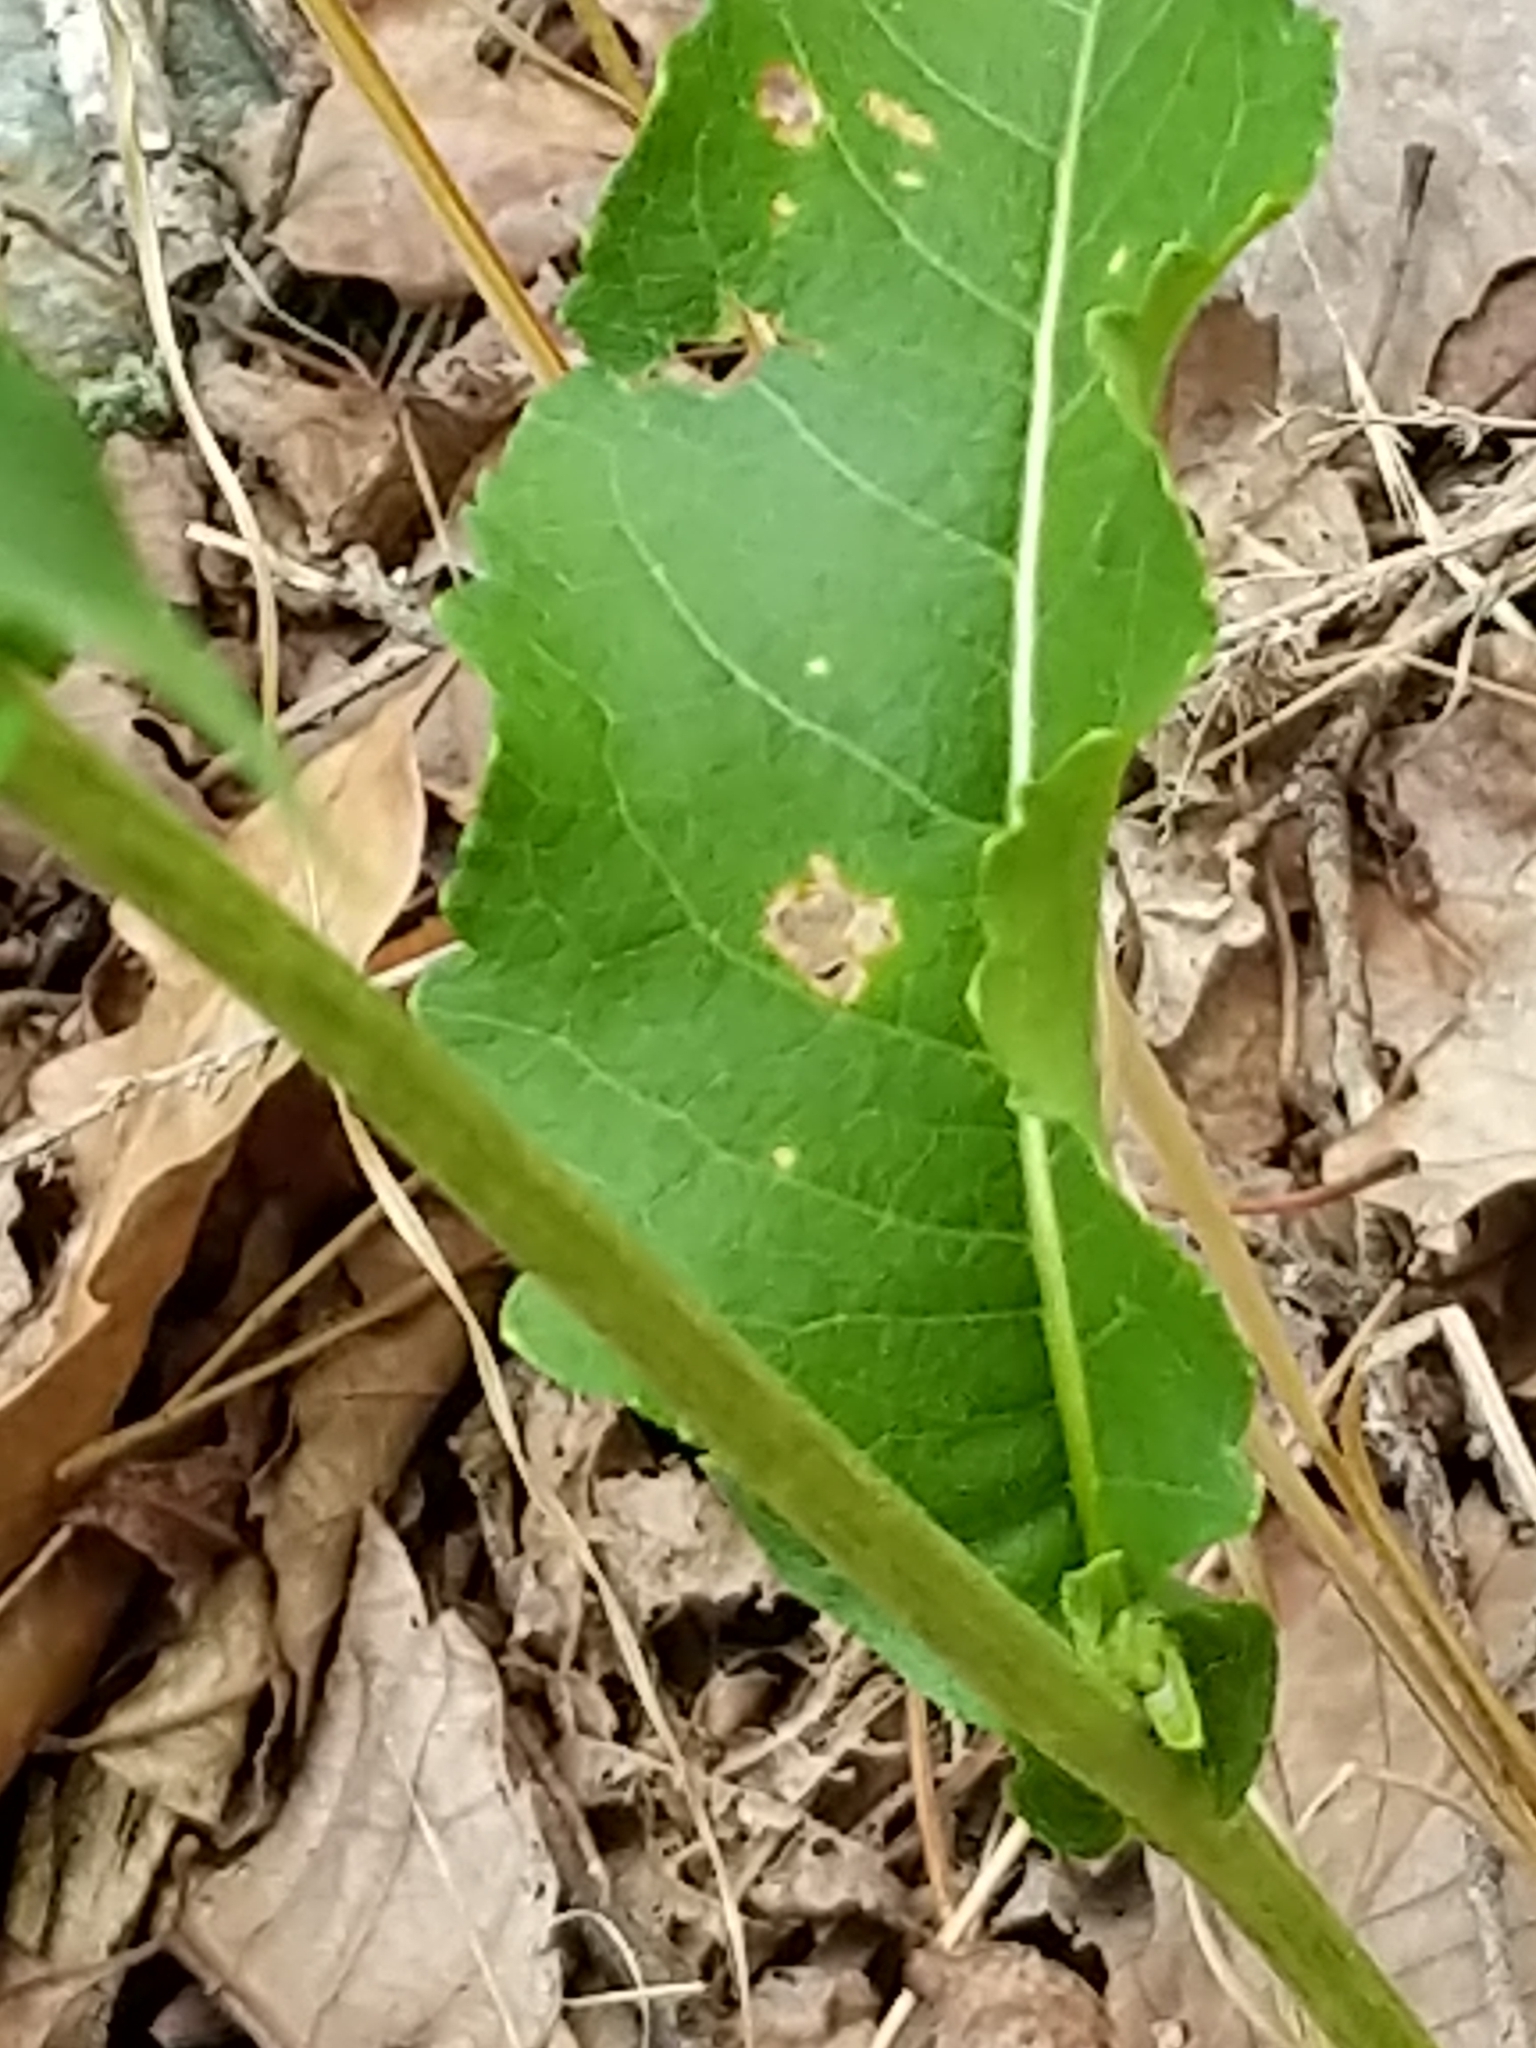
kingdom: Plantae
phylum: Tracheophyta
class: Magnoliopsida
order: Asterales
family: Asteraceae
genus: Parthenium
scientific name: Parthenium integrifolium
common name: American feverfew
